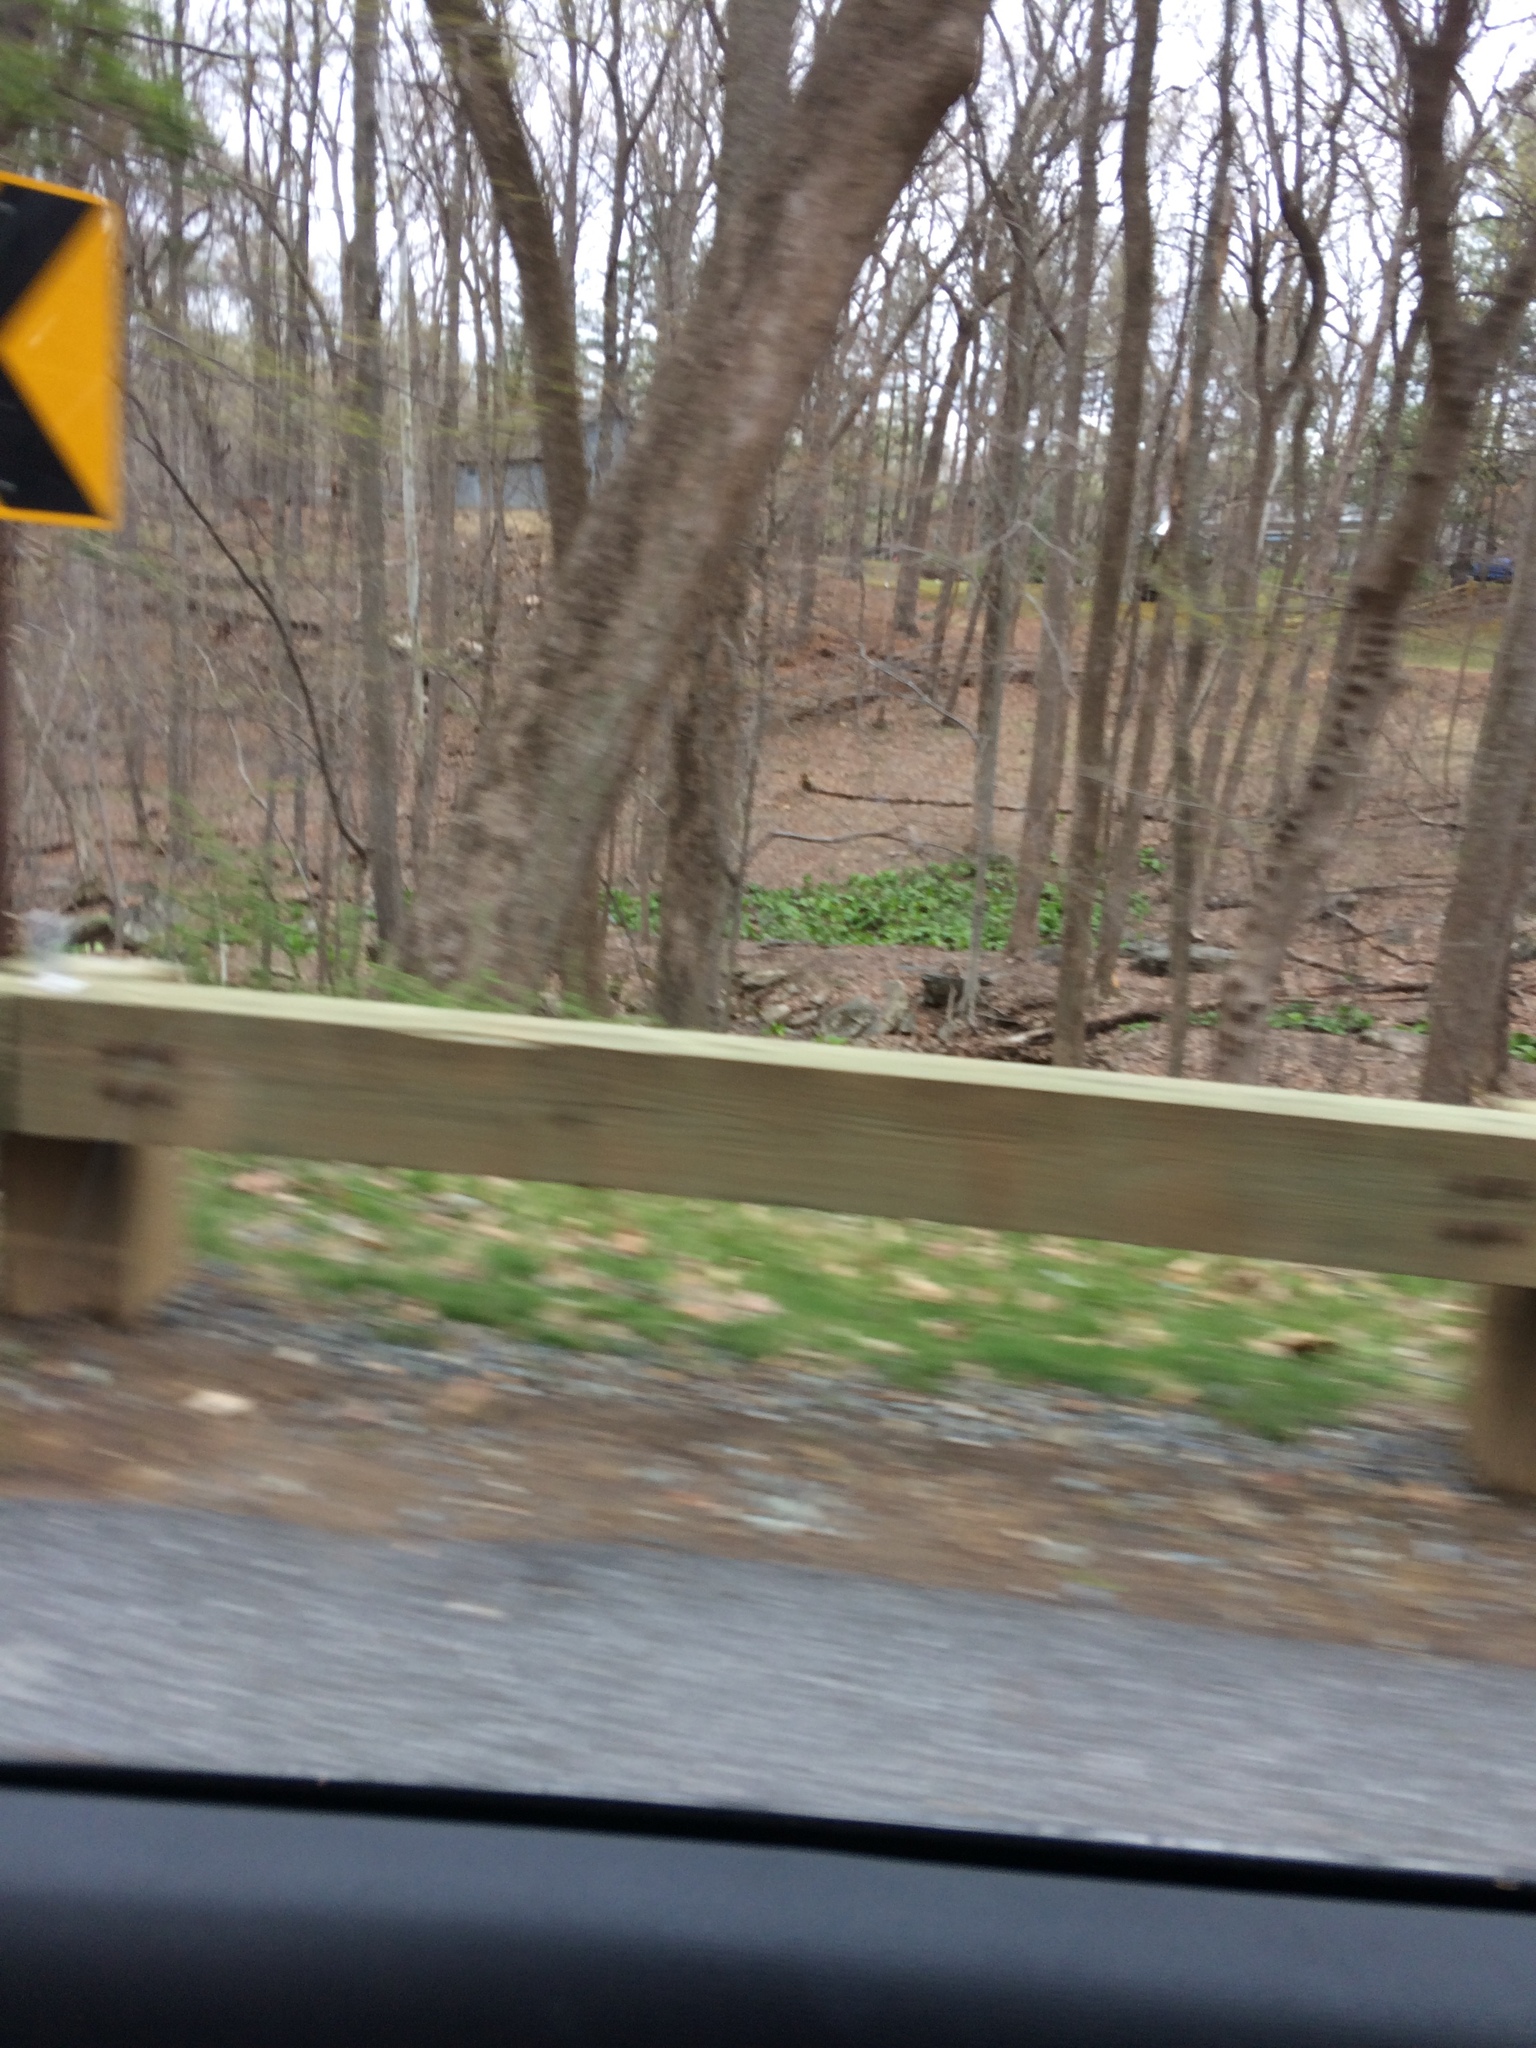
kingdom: Plantae
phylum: Tracheophyta
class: Liliopsida
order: Alismatales
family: Araceae
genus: Symplocarpus
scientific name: Symplocarpus foetidus
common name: Eastern skunk cabbage
